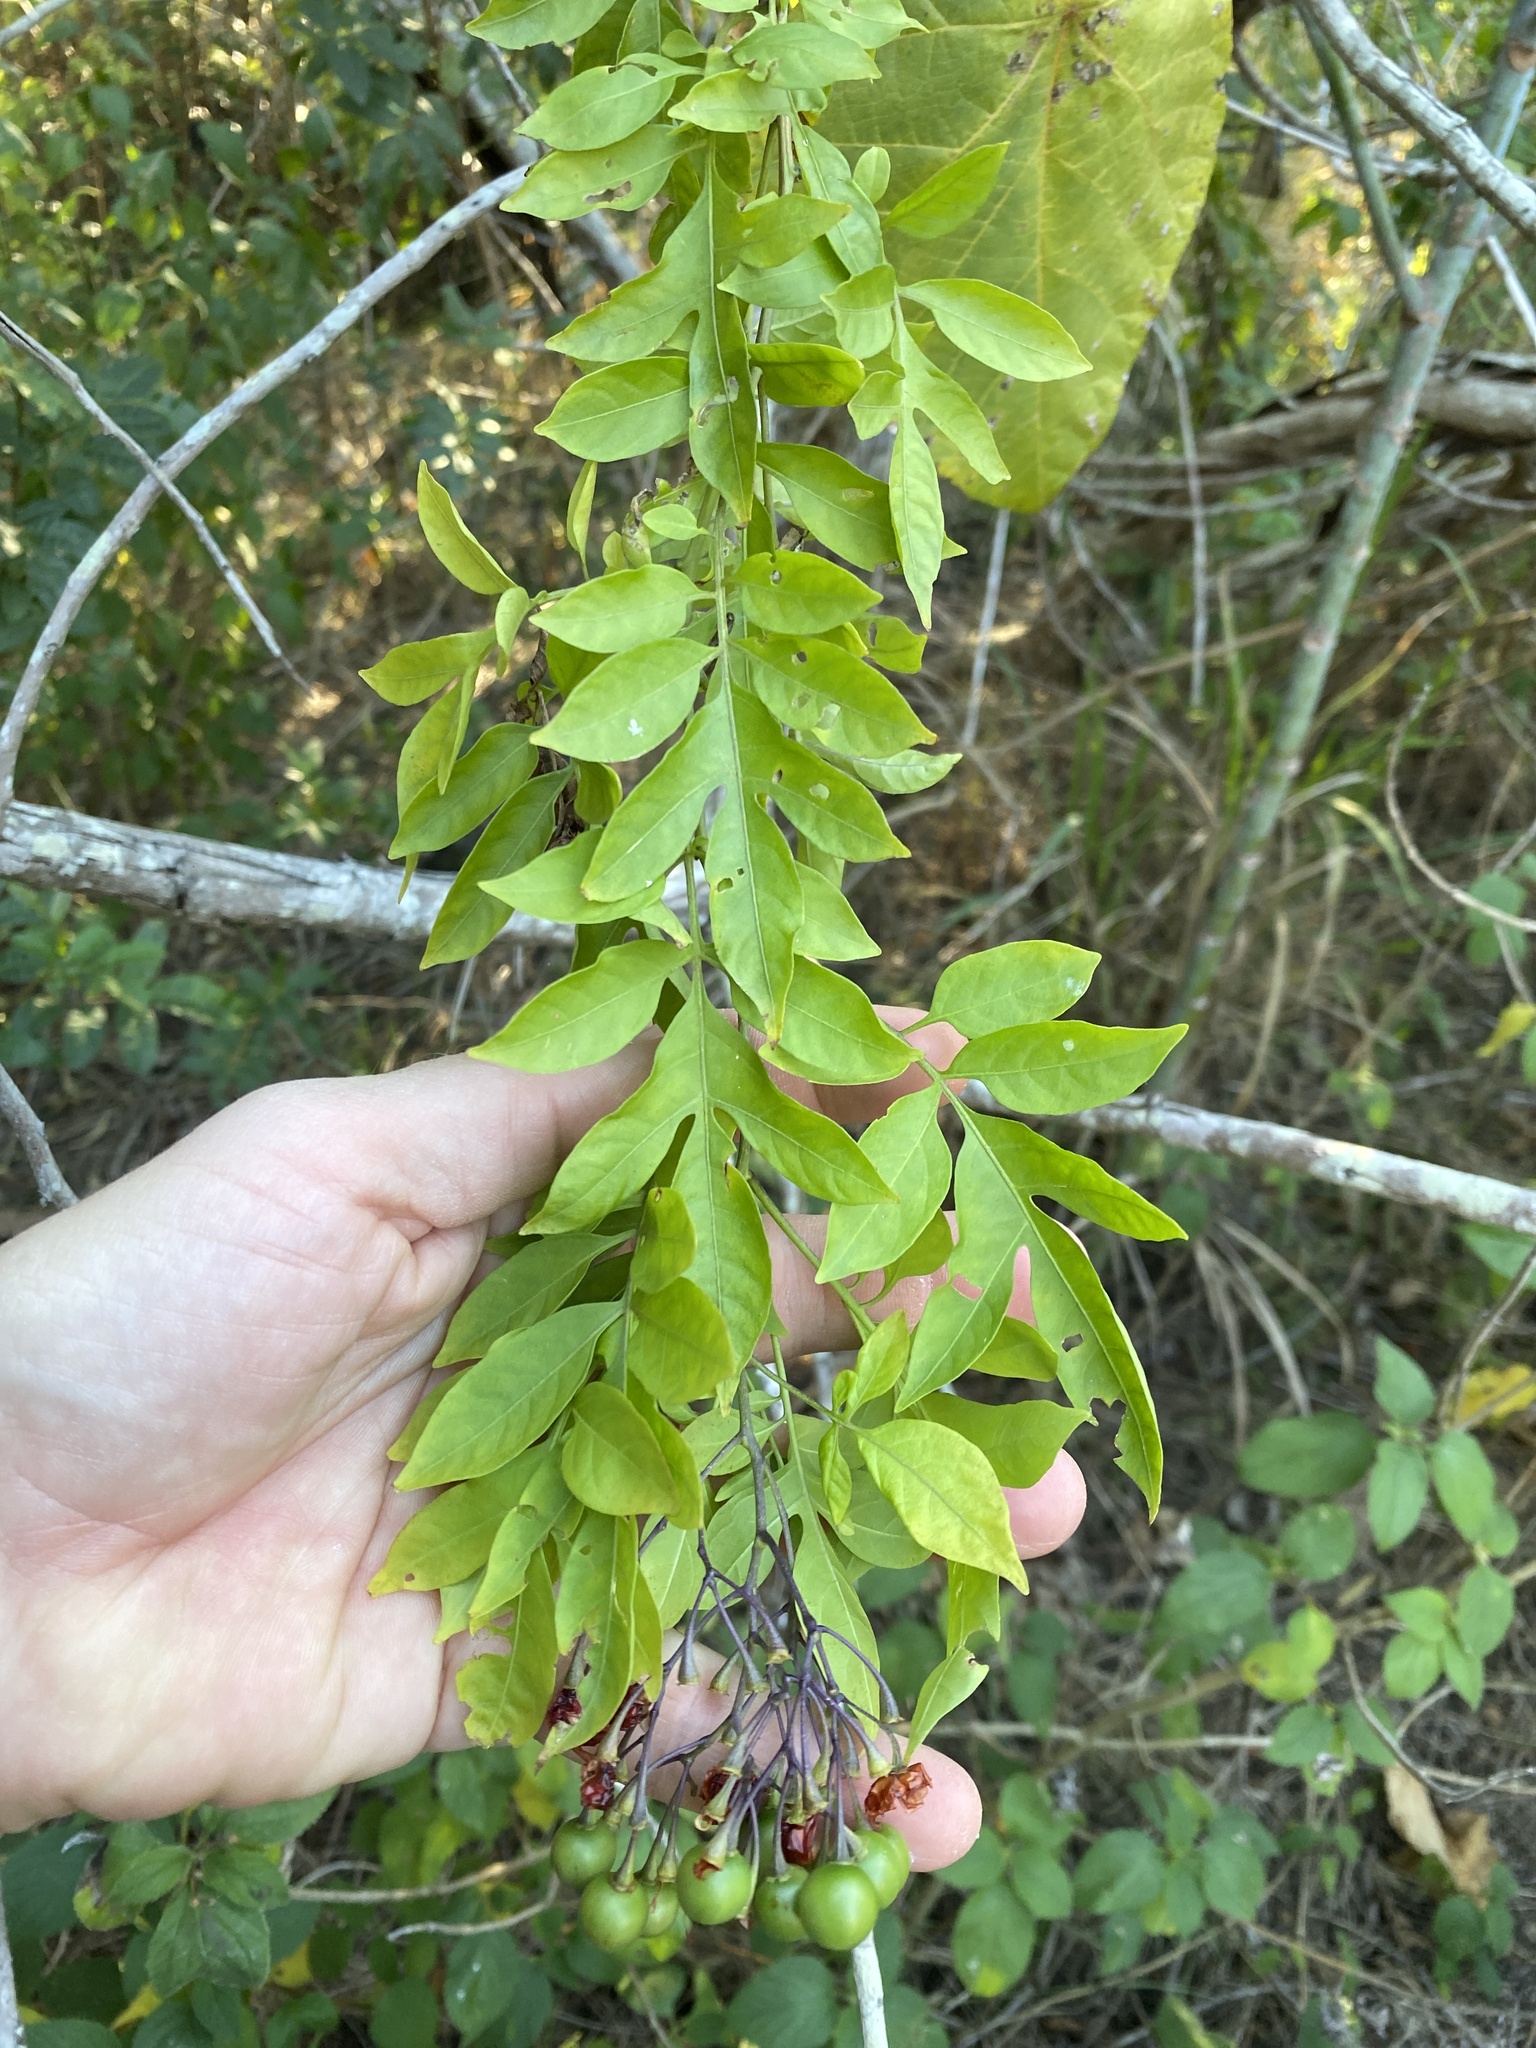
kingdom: Plantae
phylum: Tracheophyta
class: Magnoliopsida
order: Solanales
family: Solanaceae
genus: Solanum
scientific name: Solanum seaforthianum
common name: Brazilian nightshade
